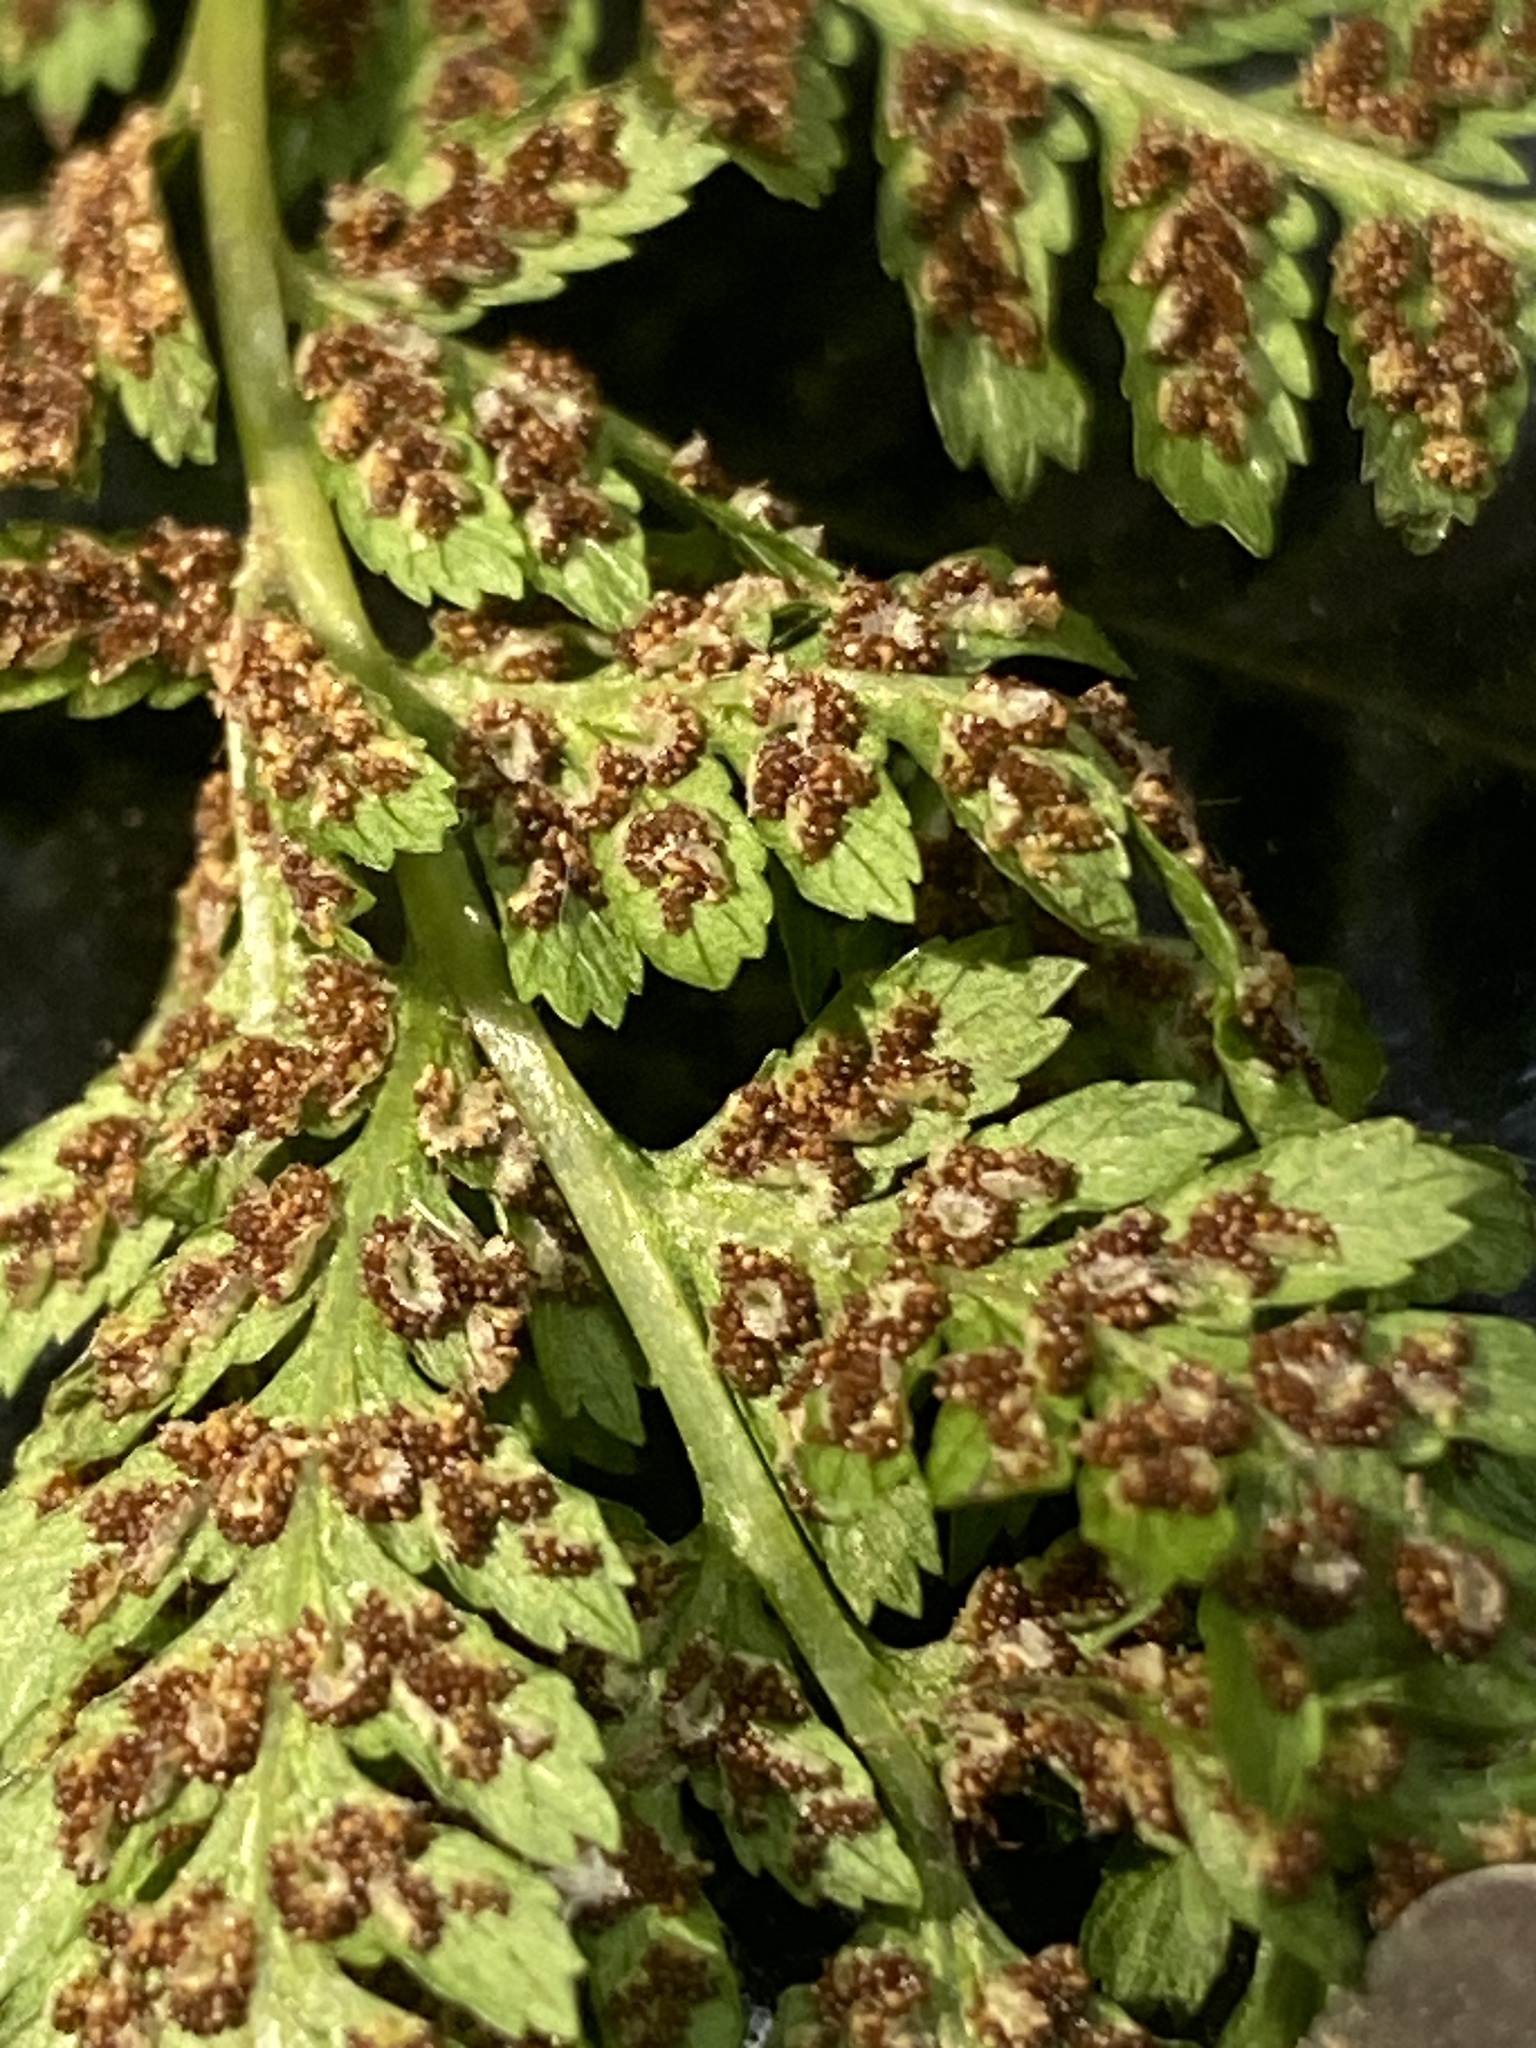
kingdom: Plantae
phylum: Tracheophyta
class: Polypodiopsida
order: Polypodiales
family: Thelypteridaceae
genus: Phegopteris
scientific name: Phegopteris hexagonoptera
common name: Broad beech fern
